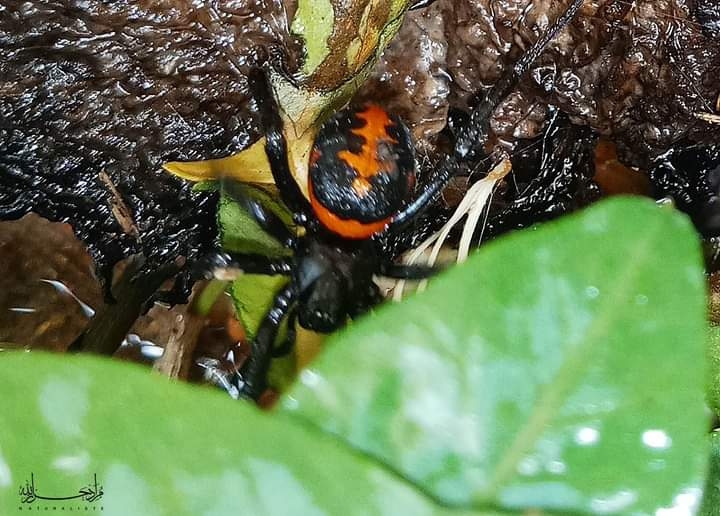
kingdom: Animalia
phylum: Arthropoda
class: Arachnida
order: Araneae
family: Theridiidae
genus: Steatoda
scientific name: Steatoda paykulliana
